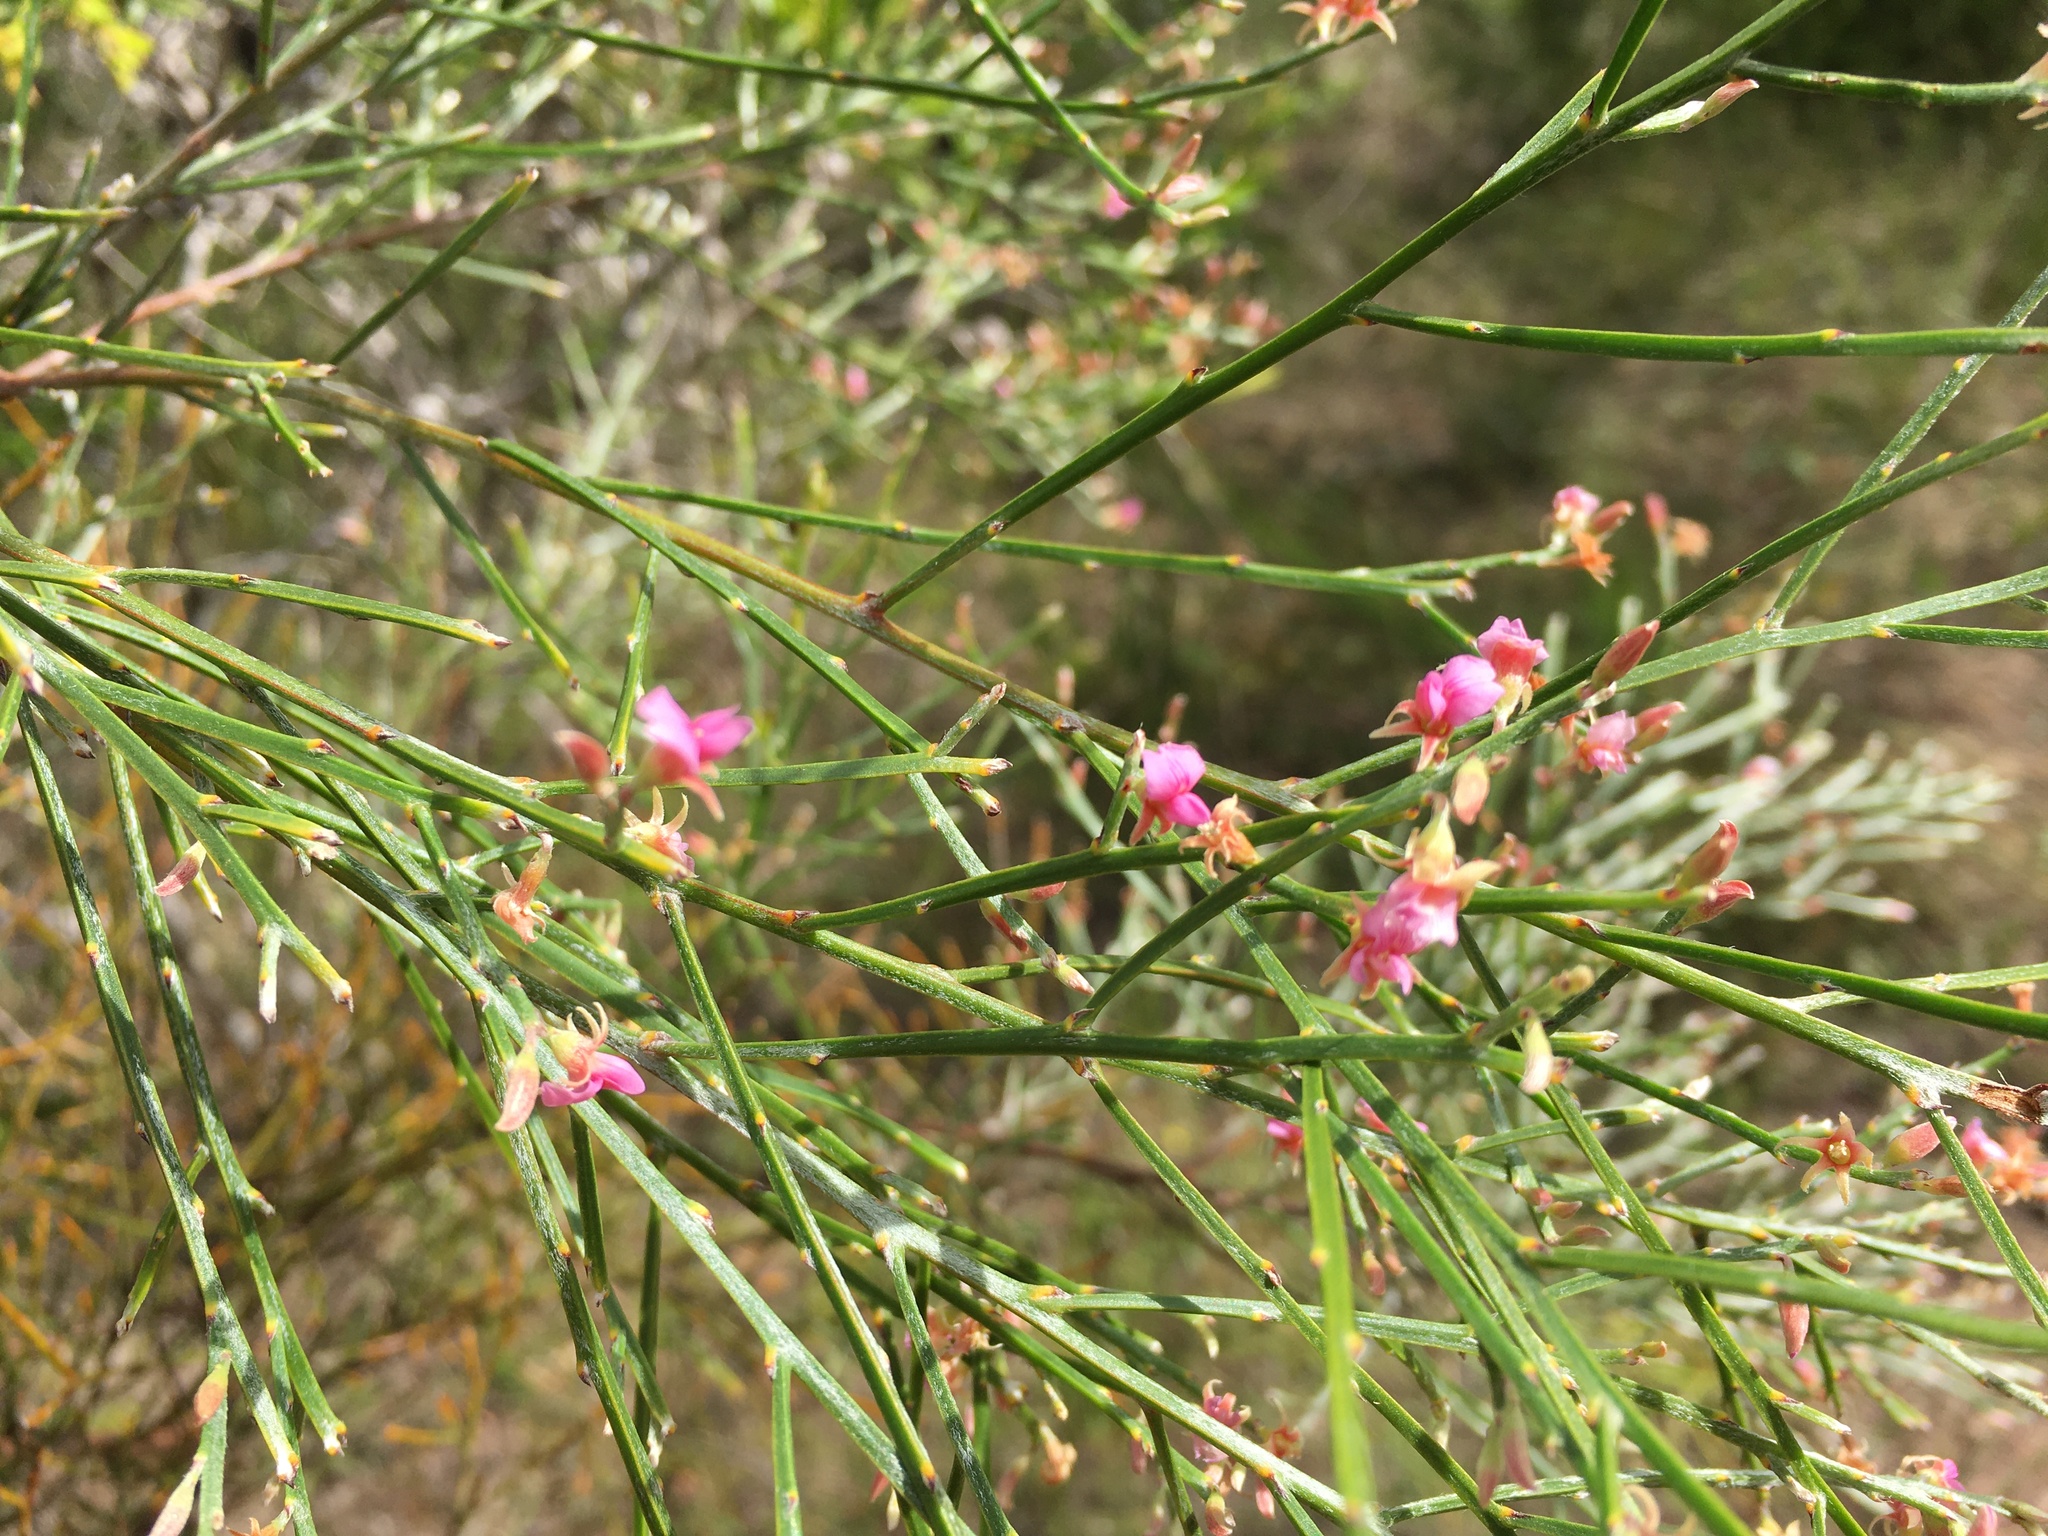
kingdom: Plantae
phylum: Tracheophyta
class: Magnoliopsida
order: Fabales
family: Fabaceae
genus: Jacksonia
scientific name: Jacksonia thesioides
